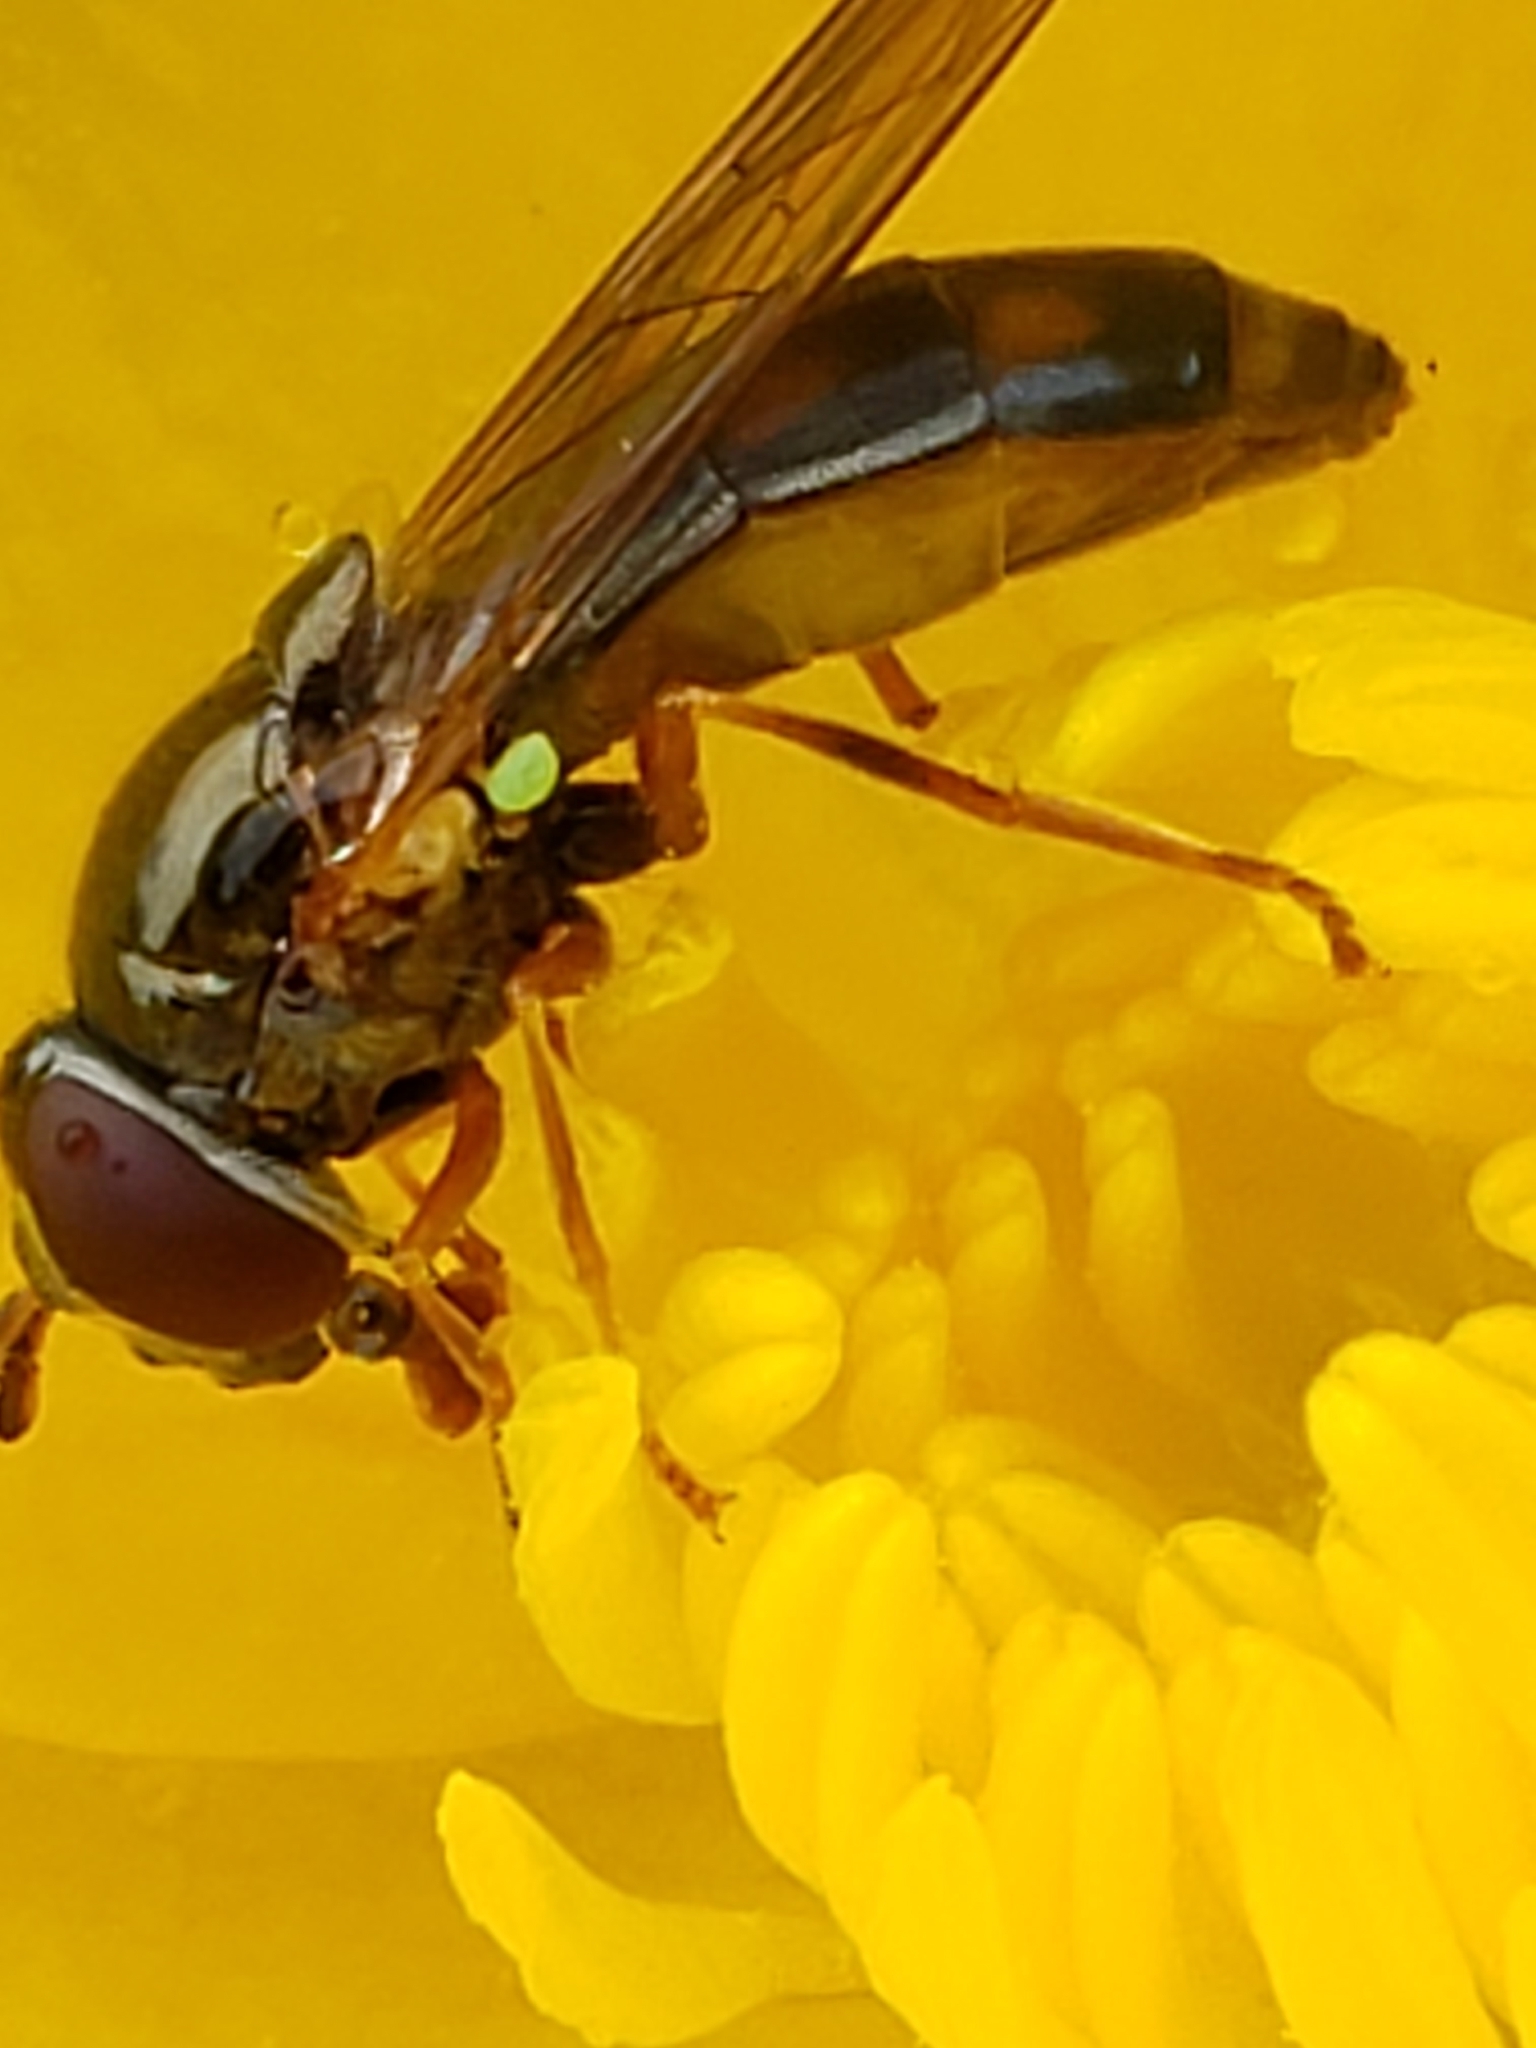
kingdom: Animalia
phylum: Arthropoda
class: Insecta
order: Diptera
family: Syrphidae
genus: Melanostoma
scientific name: Melanostoma mellina
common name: Hover fly
